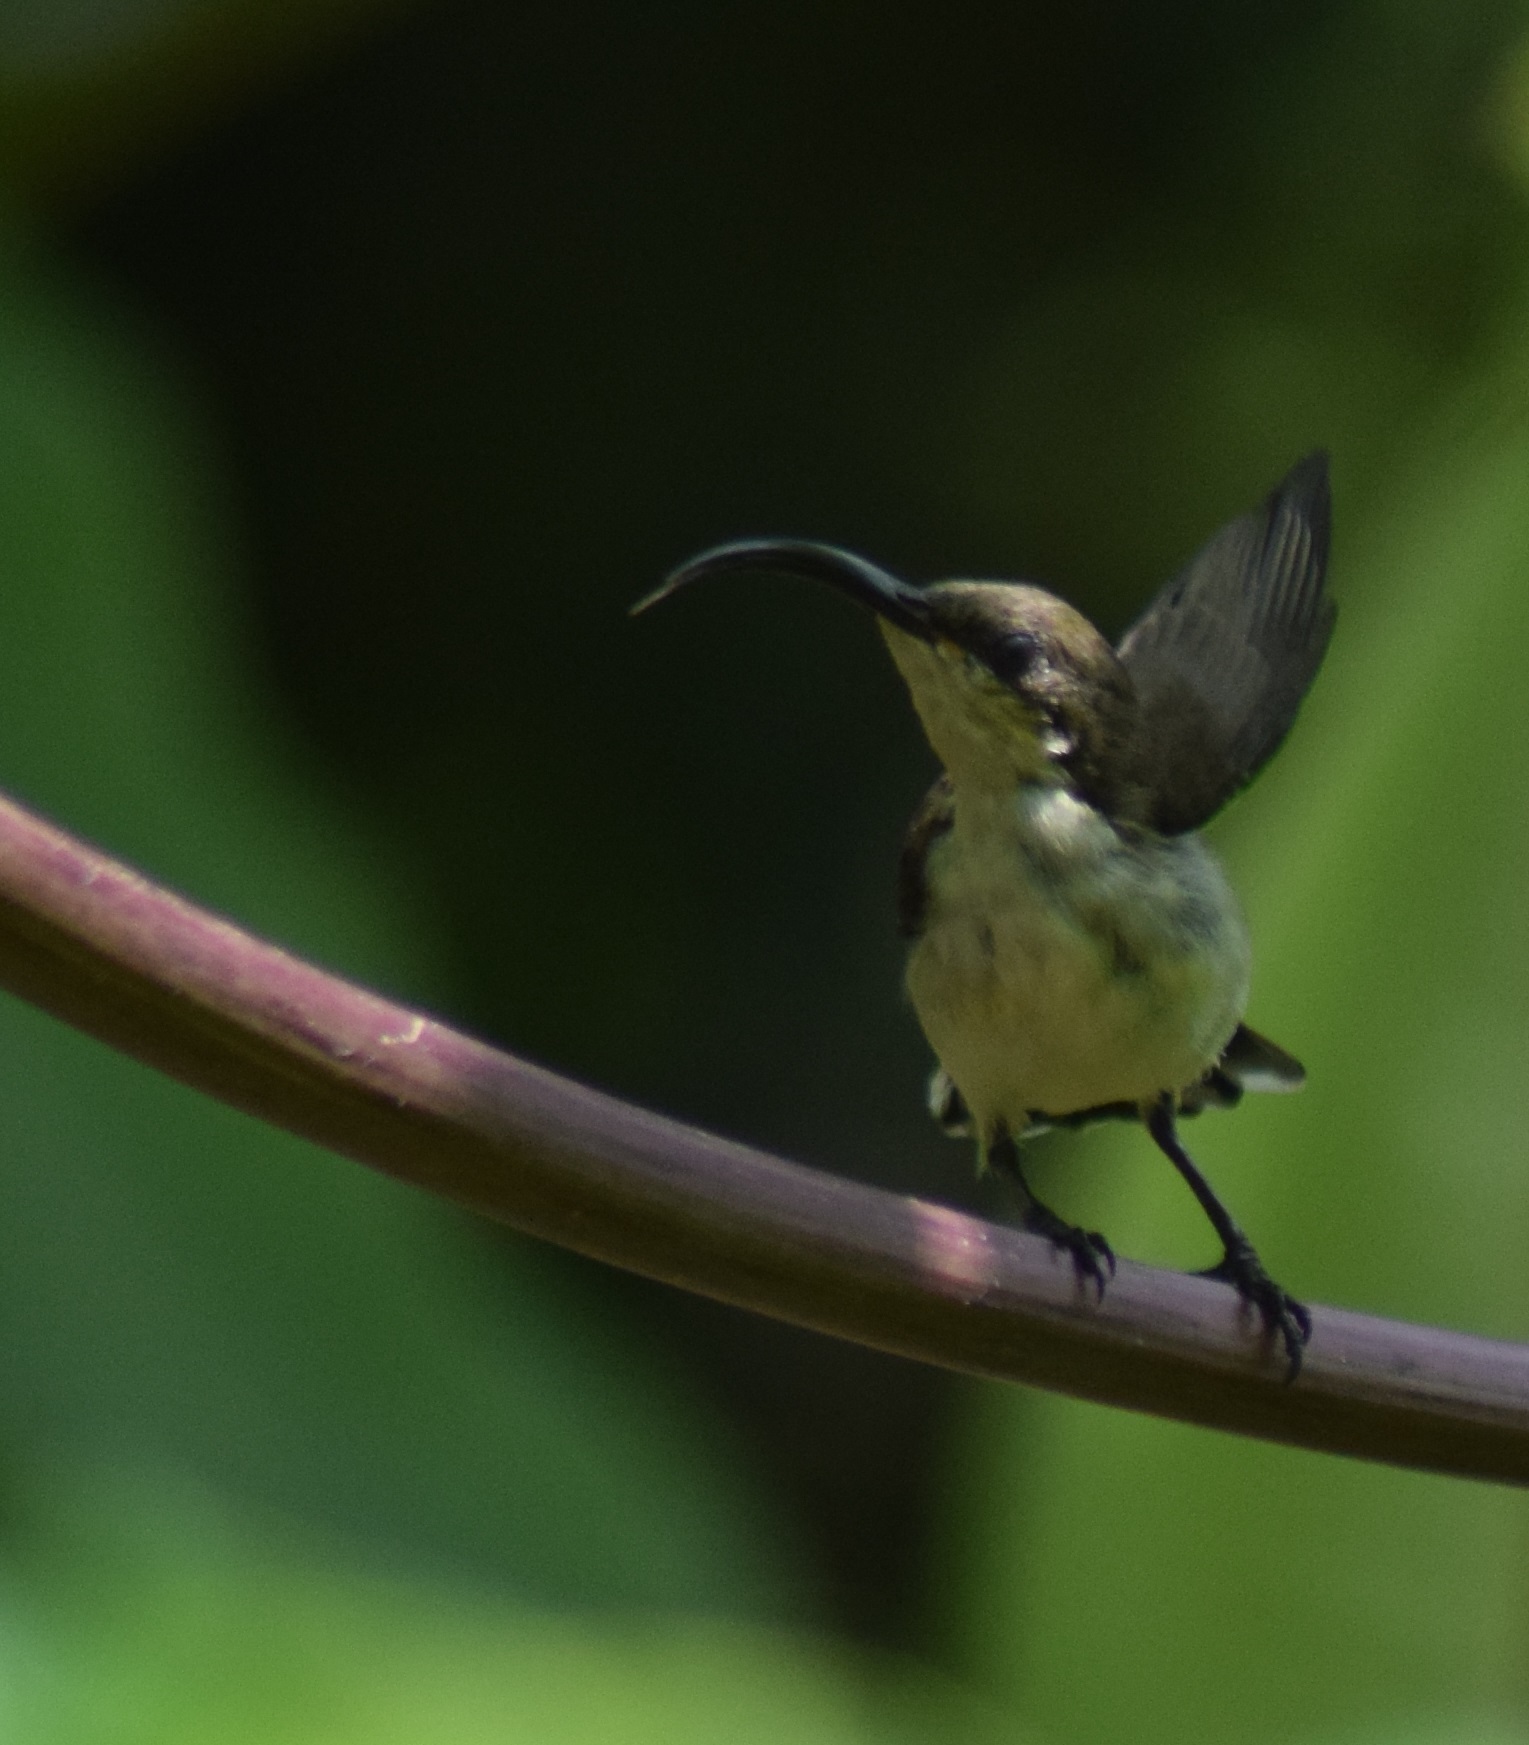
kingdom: Animalia
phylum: Chordata
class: Aves
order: Passeriformes
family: Nectariniidae
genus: Cinnyris
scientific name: Cinnyris lotenius
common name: Loten's sunbird
